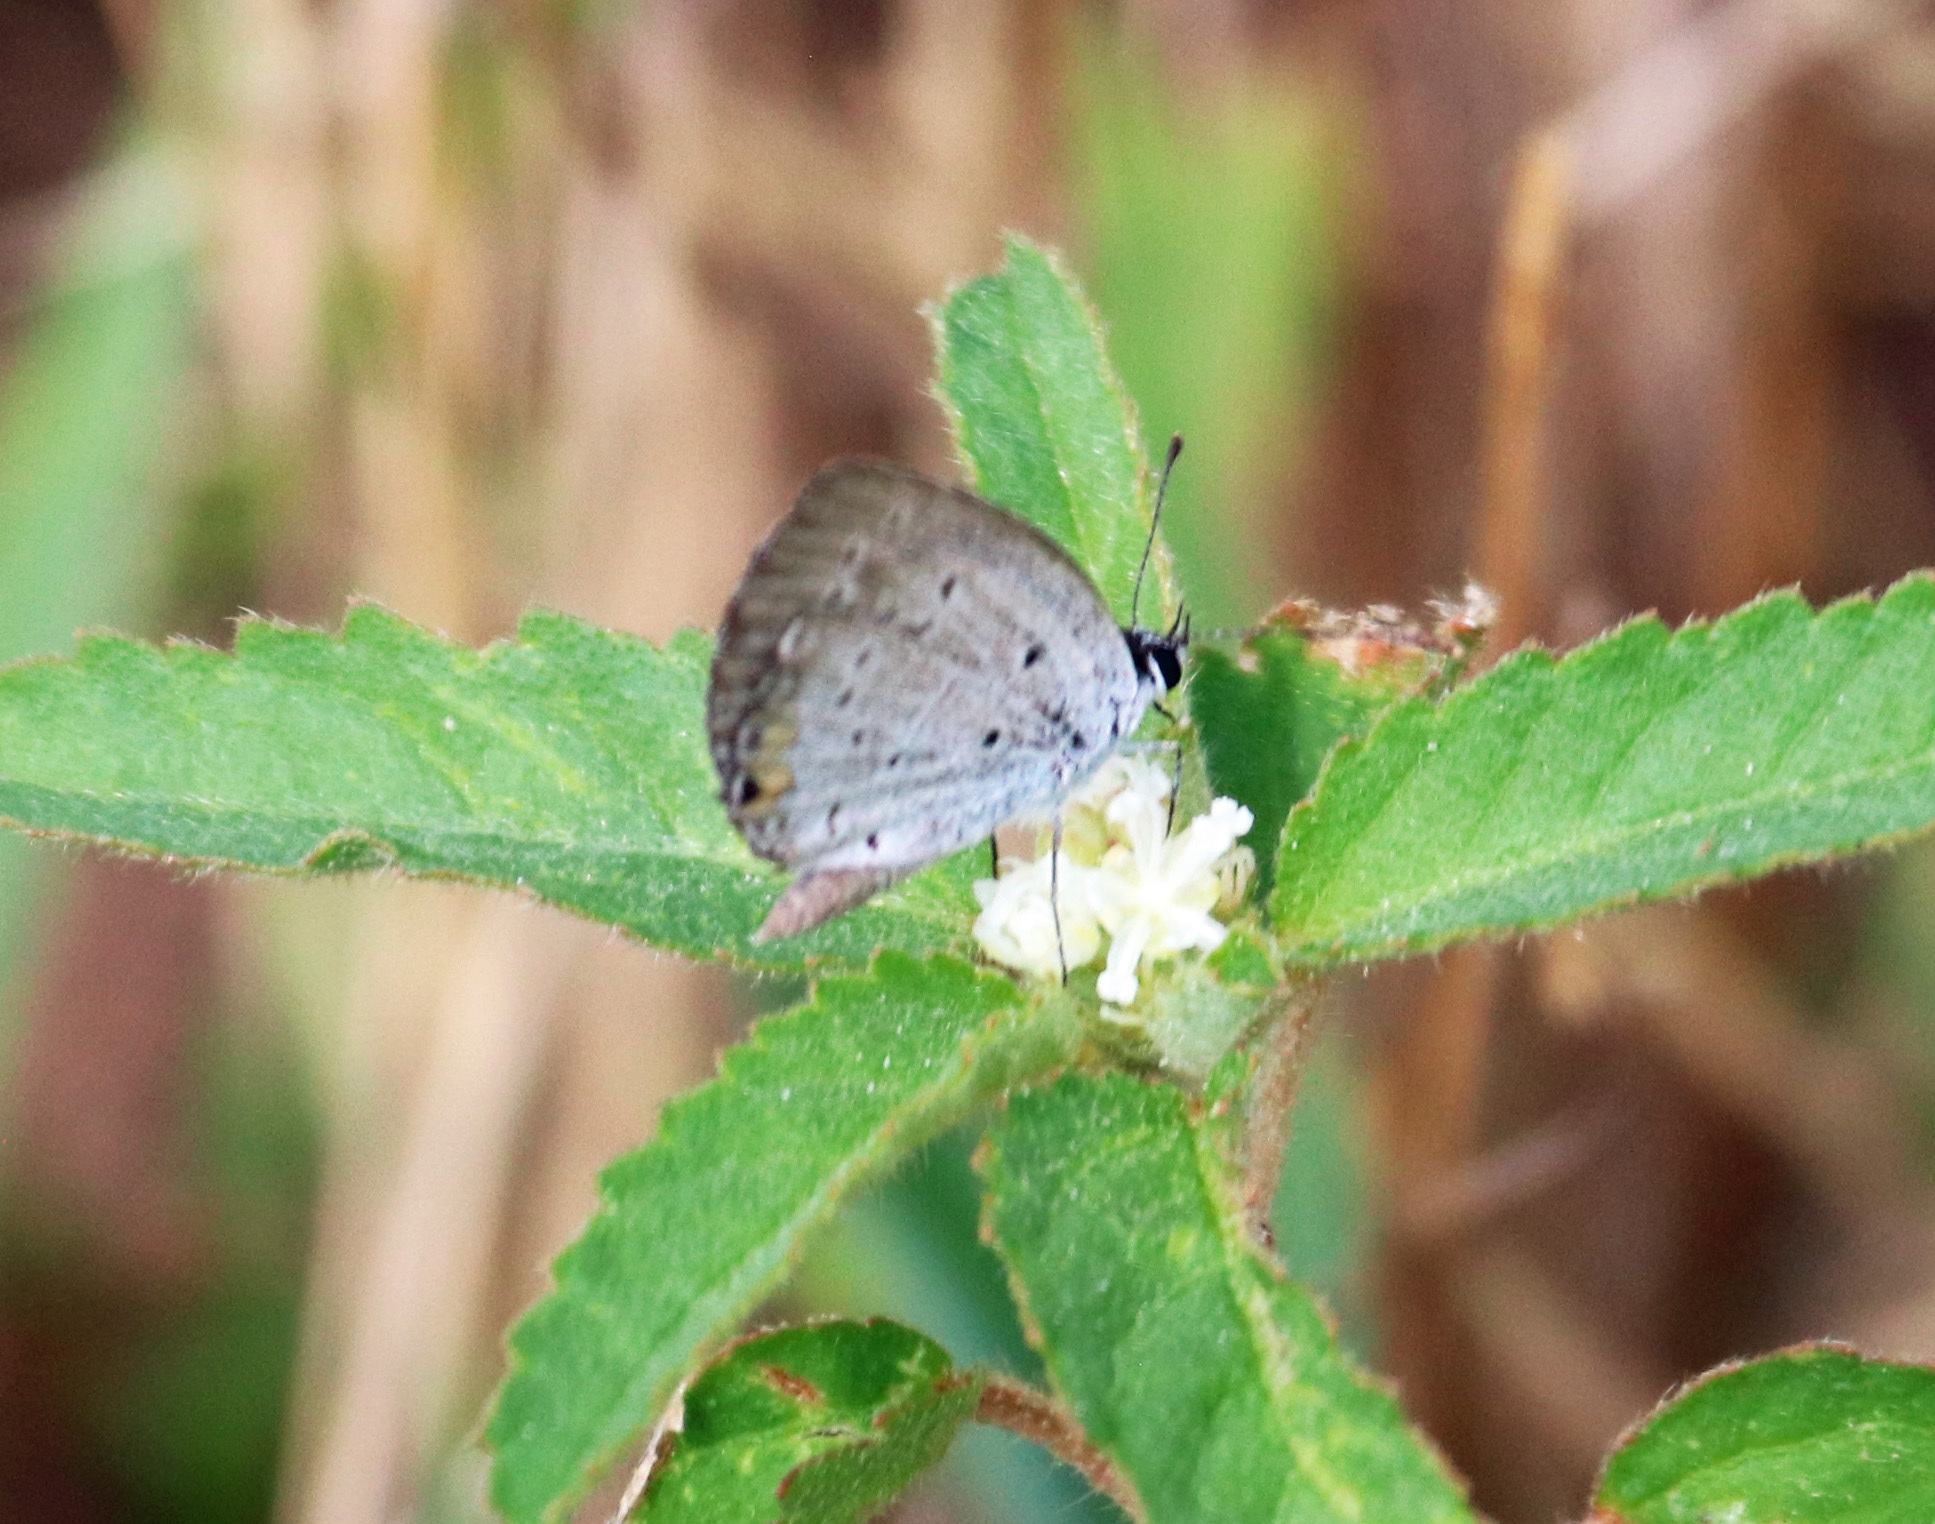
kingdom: Animalia
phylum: Arthropoda
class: Insecta
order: Lepidoptera
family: Lycaenidae
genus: Elkalyce
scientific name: Elkalyce comyntas
